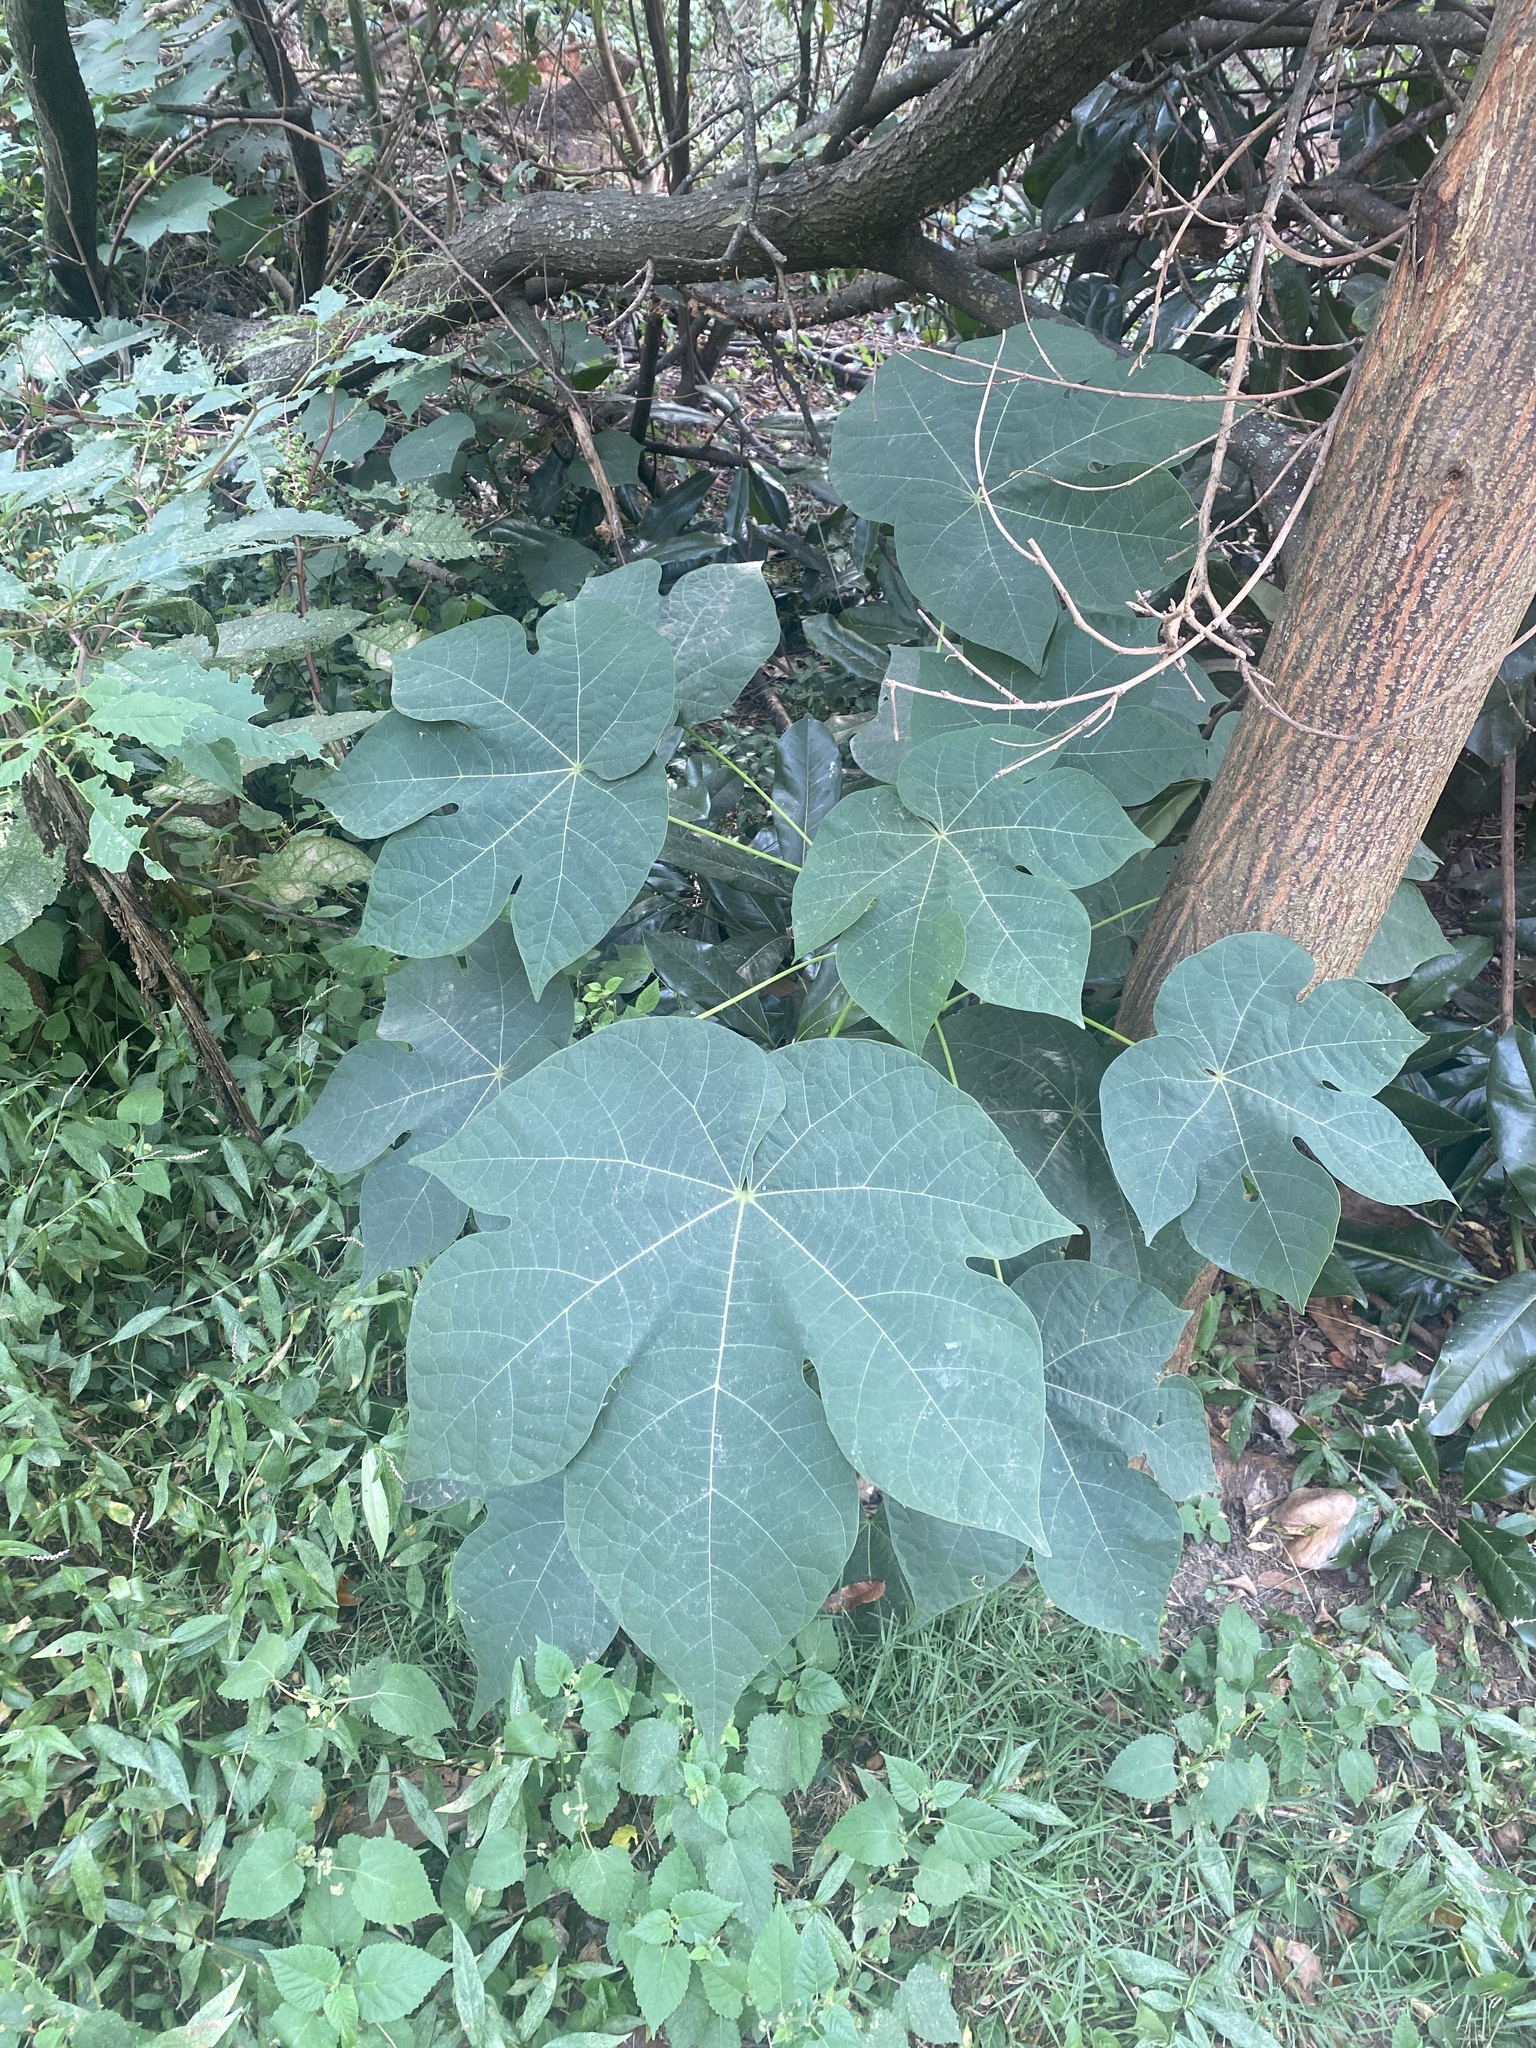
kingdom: Plantae
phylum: Tracheophyta
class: Magnoliopsida
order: Malvales
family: Malvaceae
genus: Firmiana
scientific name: Firmiana simplex
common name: Chinese parasoltree
